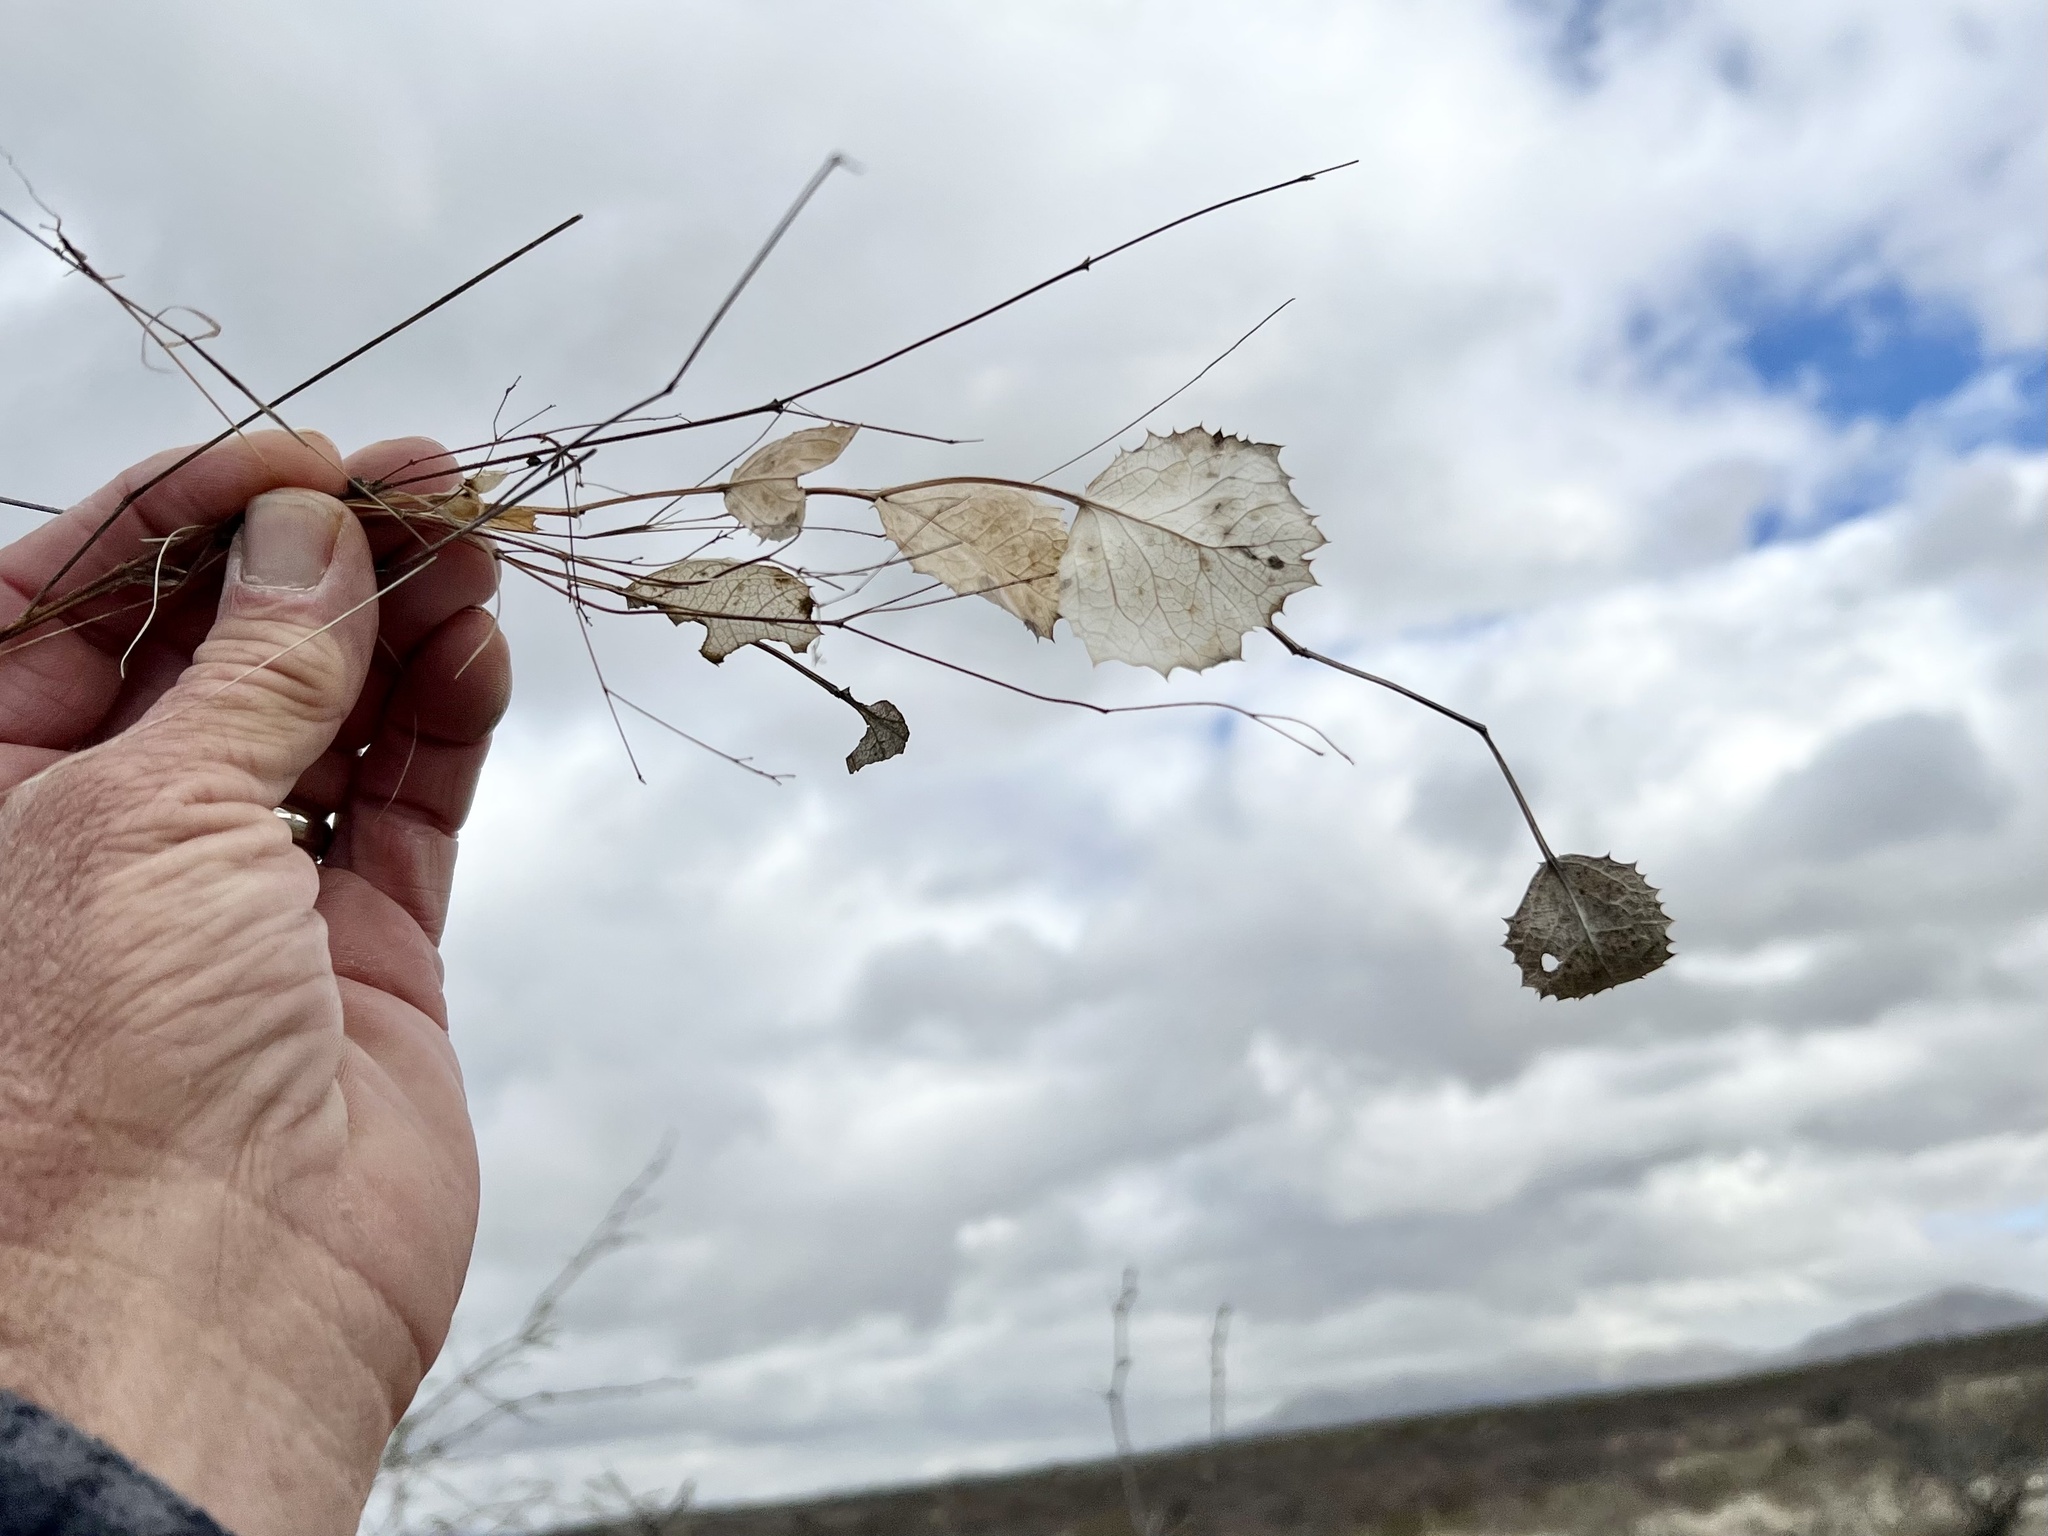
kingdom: Plantae
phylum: Tracheophyta
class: Magnoliopsida
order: Asterales
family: Asteraceae
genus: Acourtia
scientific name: Acourtia nana
